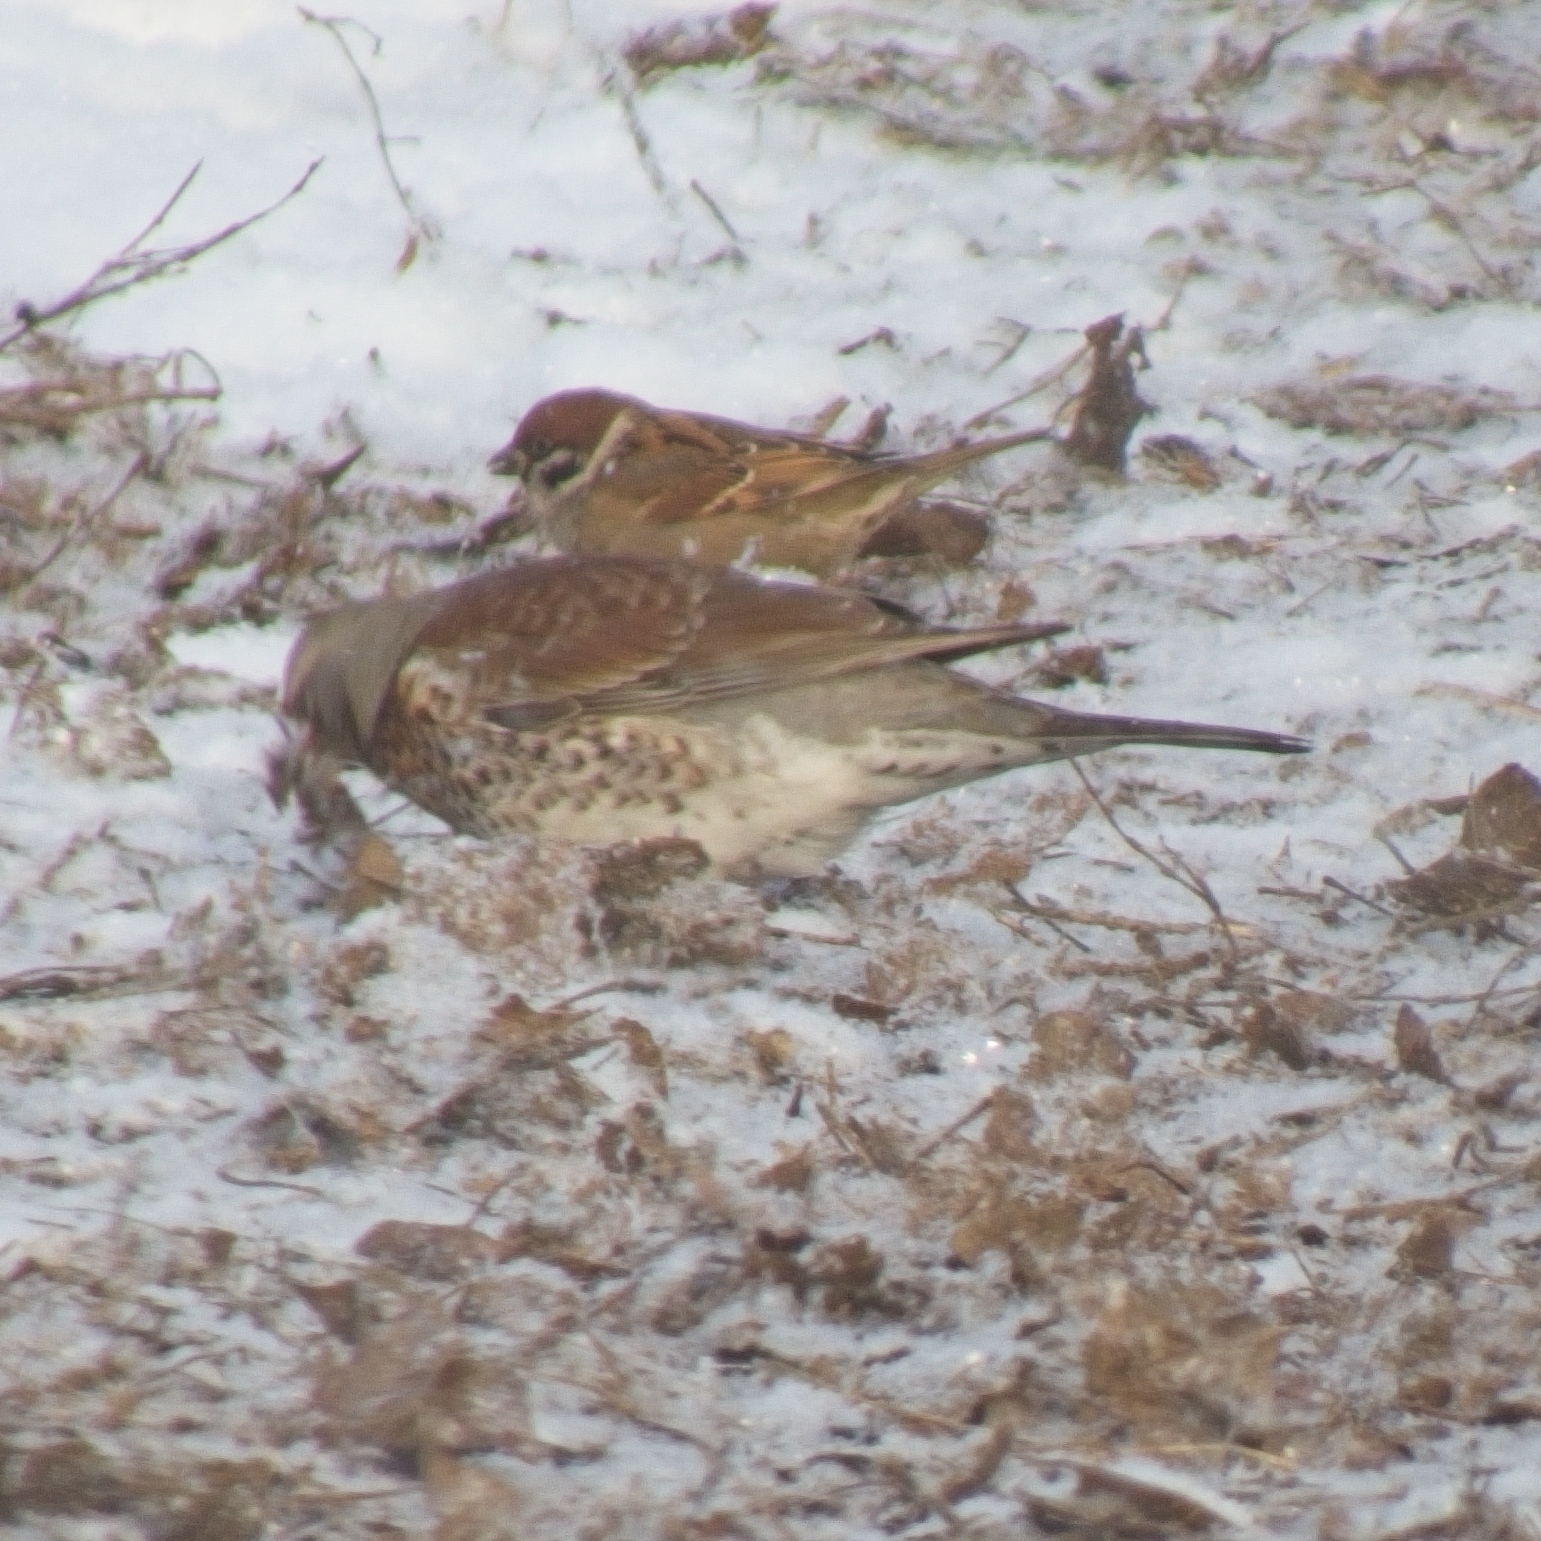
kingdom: Animalia
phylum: Chordata
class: Aves
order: Passeriformes
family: Turdidae
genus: Turdus
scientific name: Turdus pilaris
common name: Fieldfare
